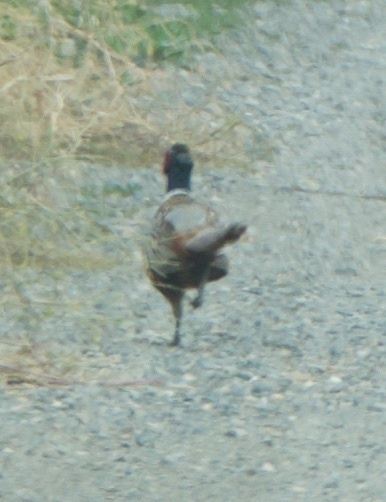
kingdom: Animalia
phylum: Chordata
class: Aves
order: Galliformes
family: Phasianidae
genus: Phasianus
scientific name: Phasianus colchicus
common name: Common pheasant
